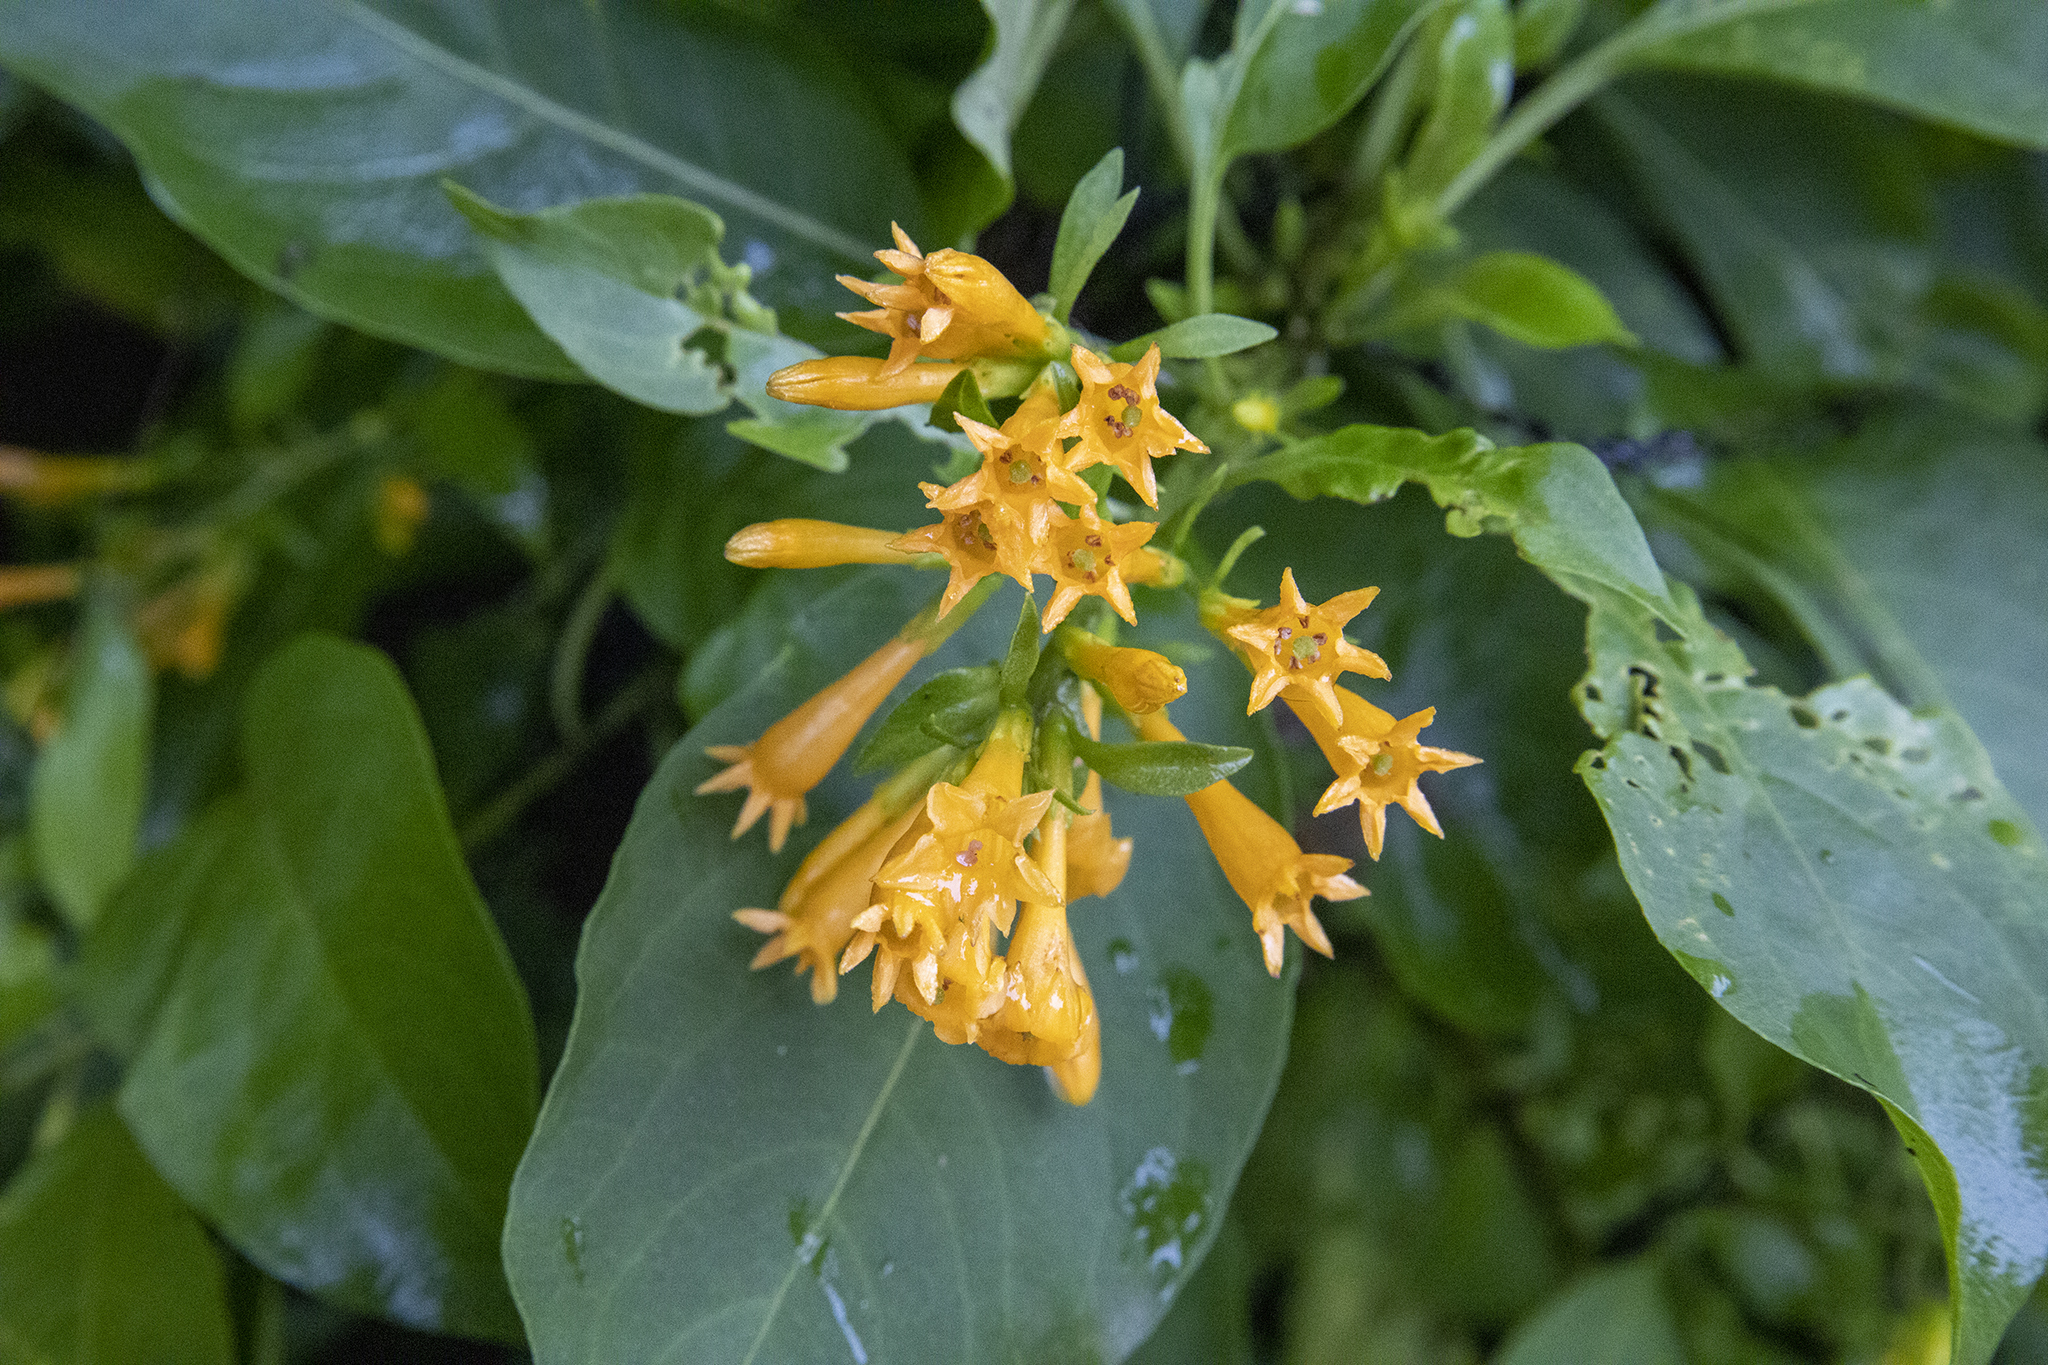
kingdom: Plantae
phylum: Tracheophyta
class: Magnoliopsida
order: Solanales
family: Solanaceae
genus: Cestrum
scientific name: Cestrum aurantiacum
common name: Orange cestrum
